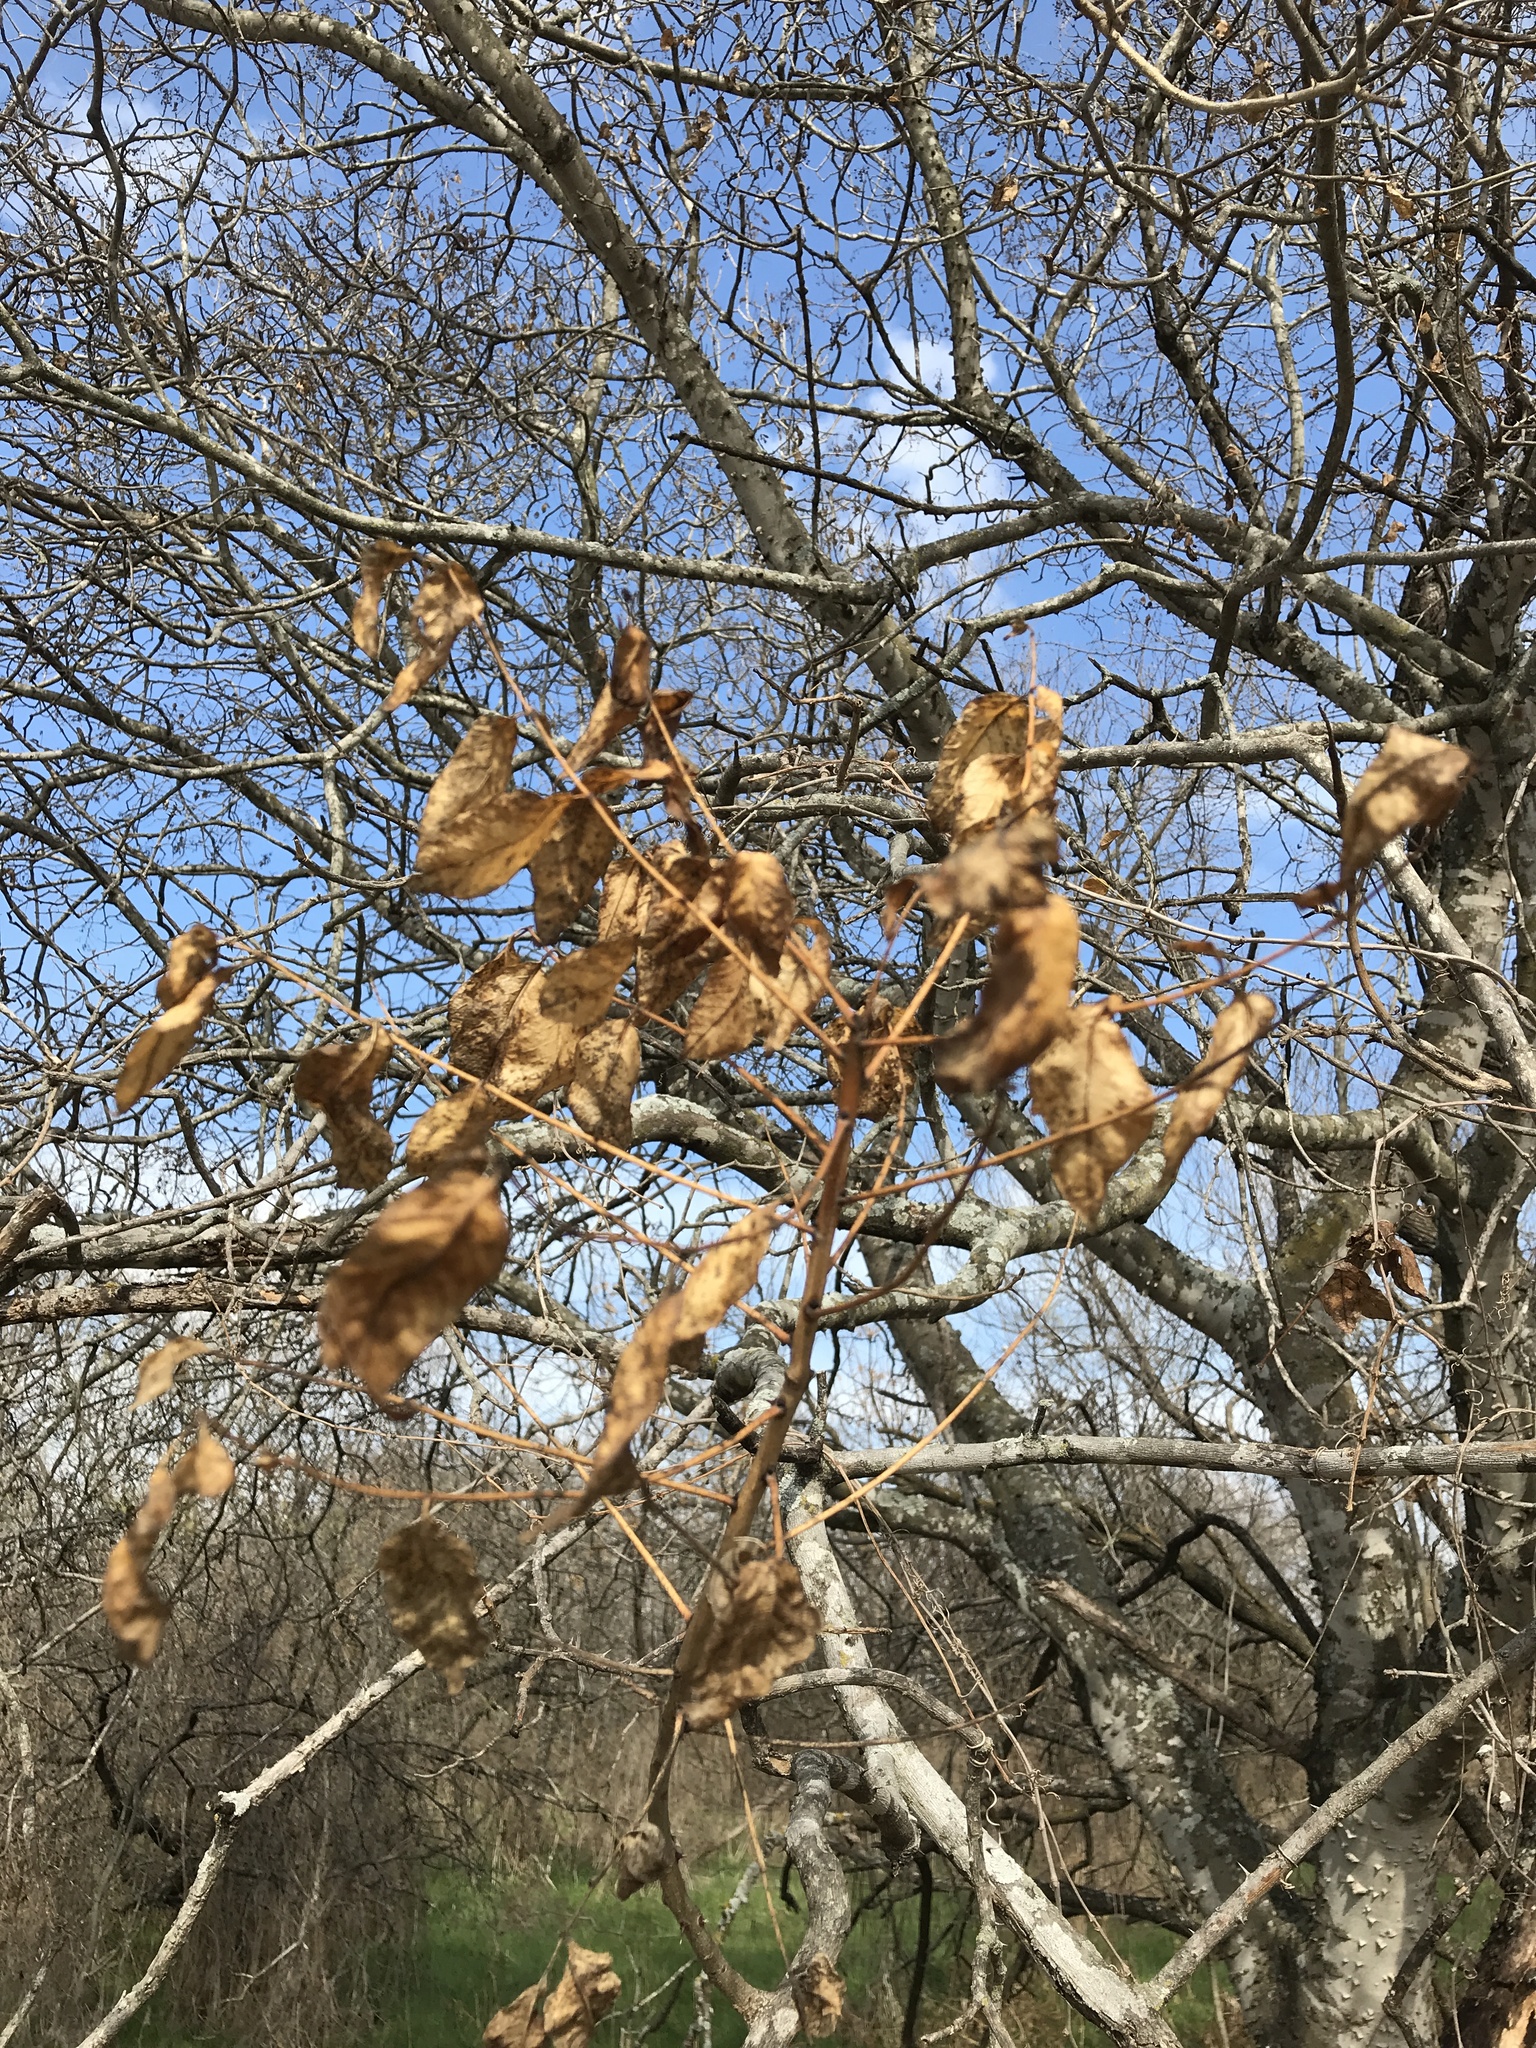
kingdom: Plantae
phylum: Tracheophyta
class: Magnoliopsida
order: Sapindales
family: Rutaceae
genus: Zanthoxylum
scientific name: Zanthoxylum clava-herculis
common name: Hercules'-club
